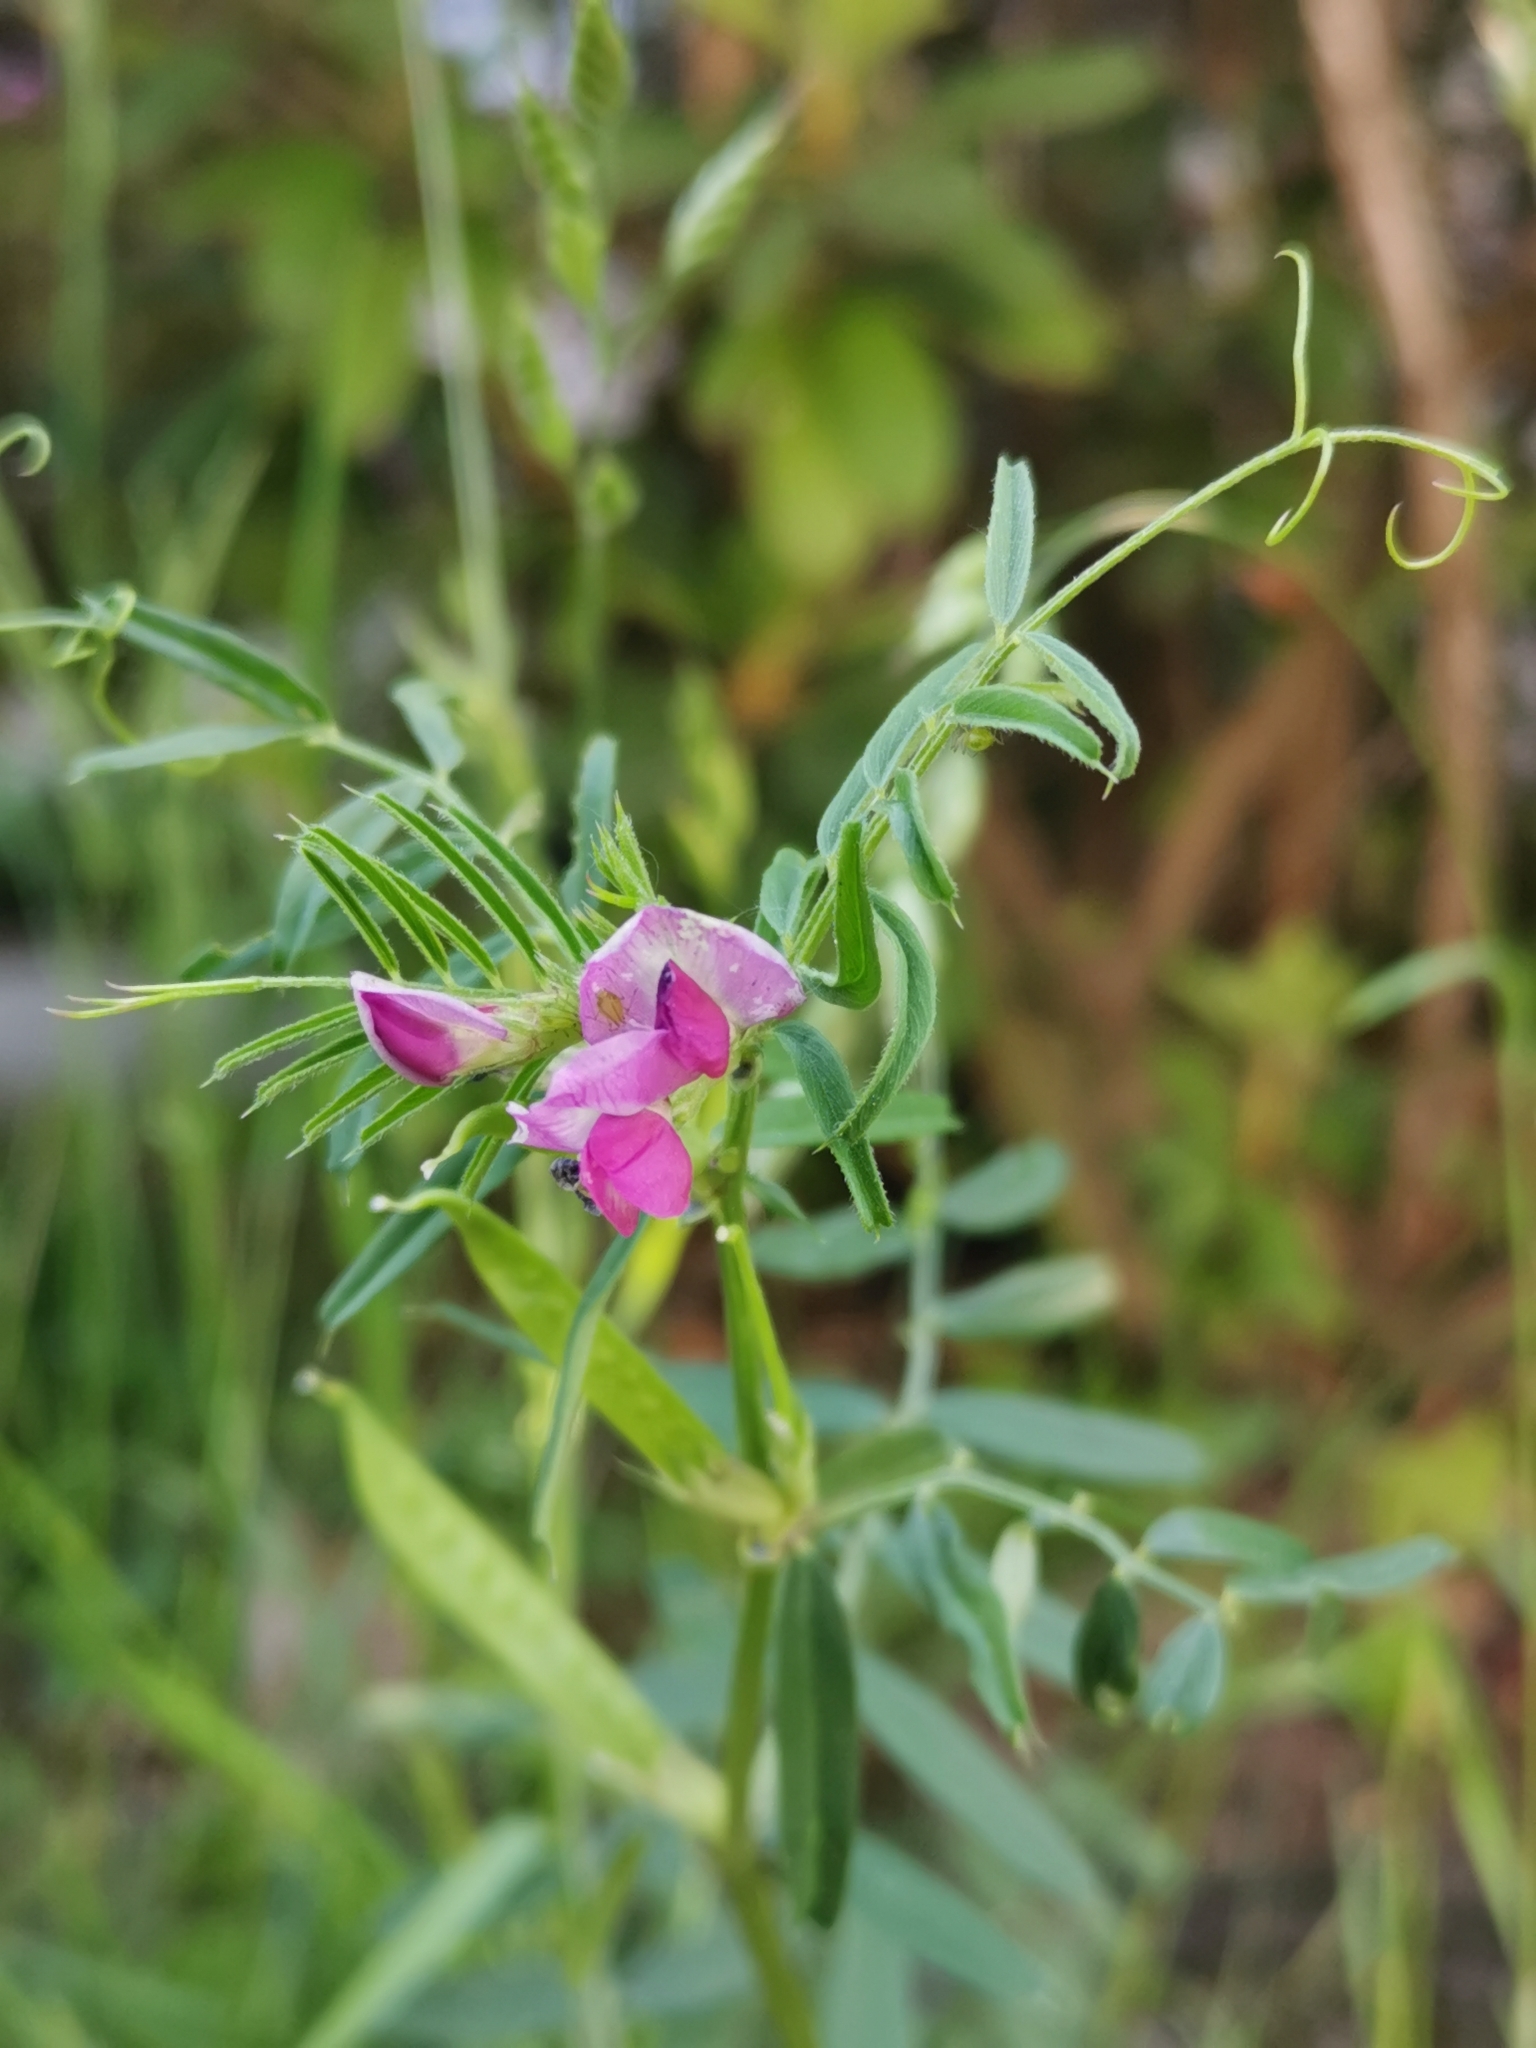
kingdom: Plantae
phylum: Tracheophyta
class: Magnoliopsida
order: Fabales
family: Fabaceae
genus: Vicia
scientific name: Vicia sativa
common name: Garden vetch
